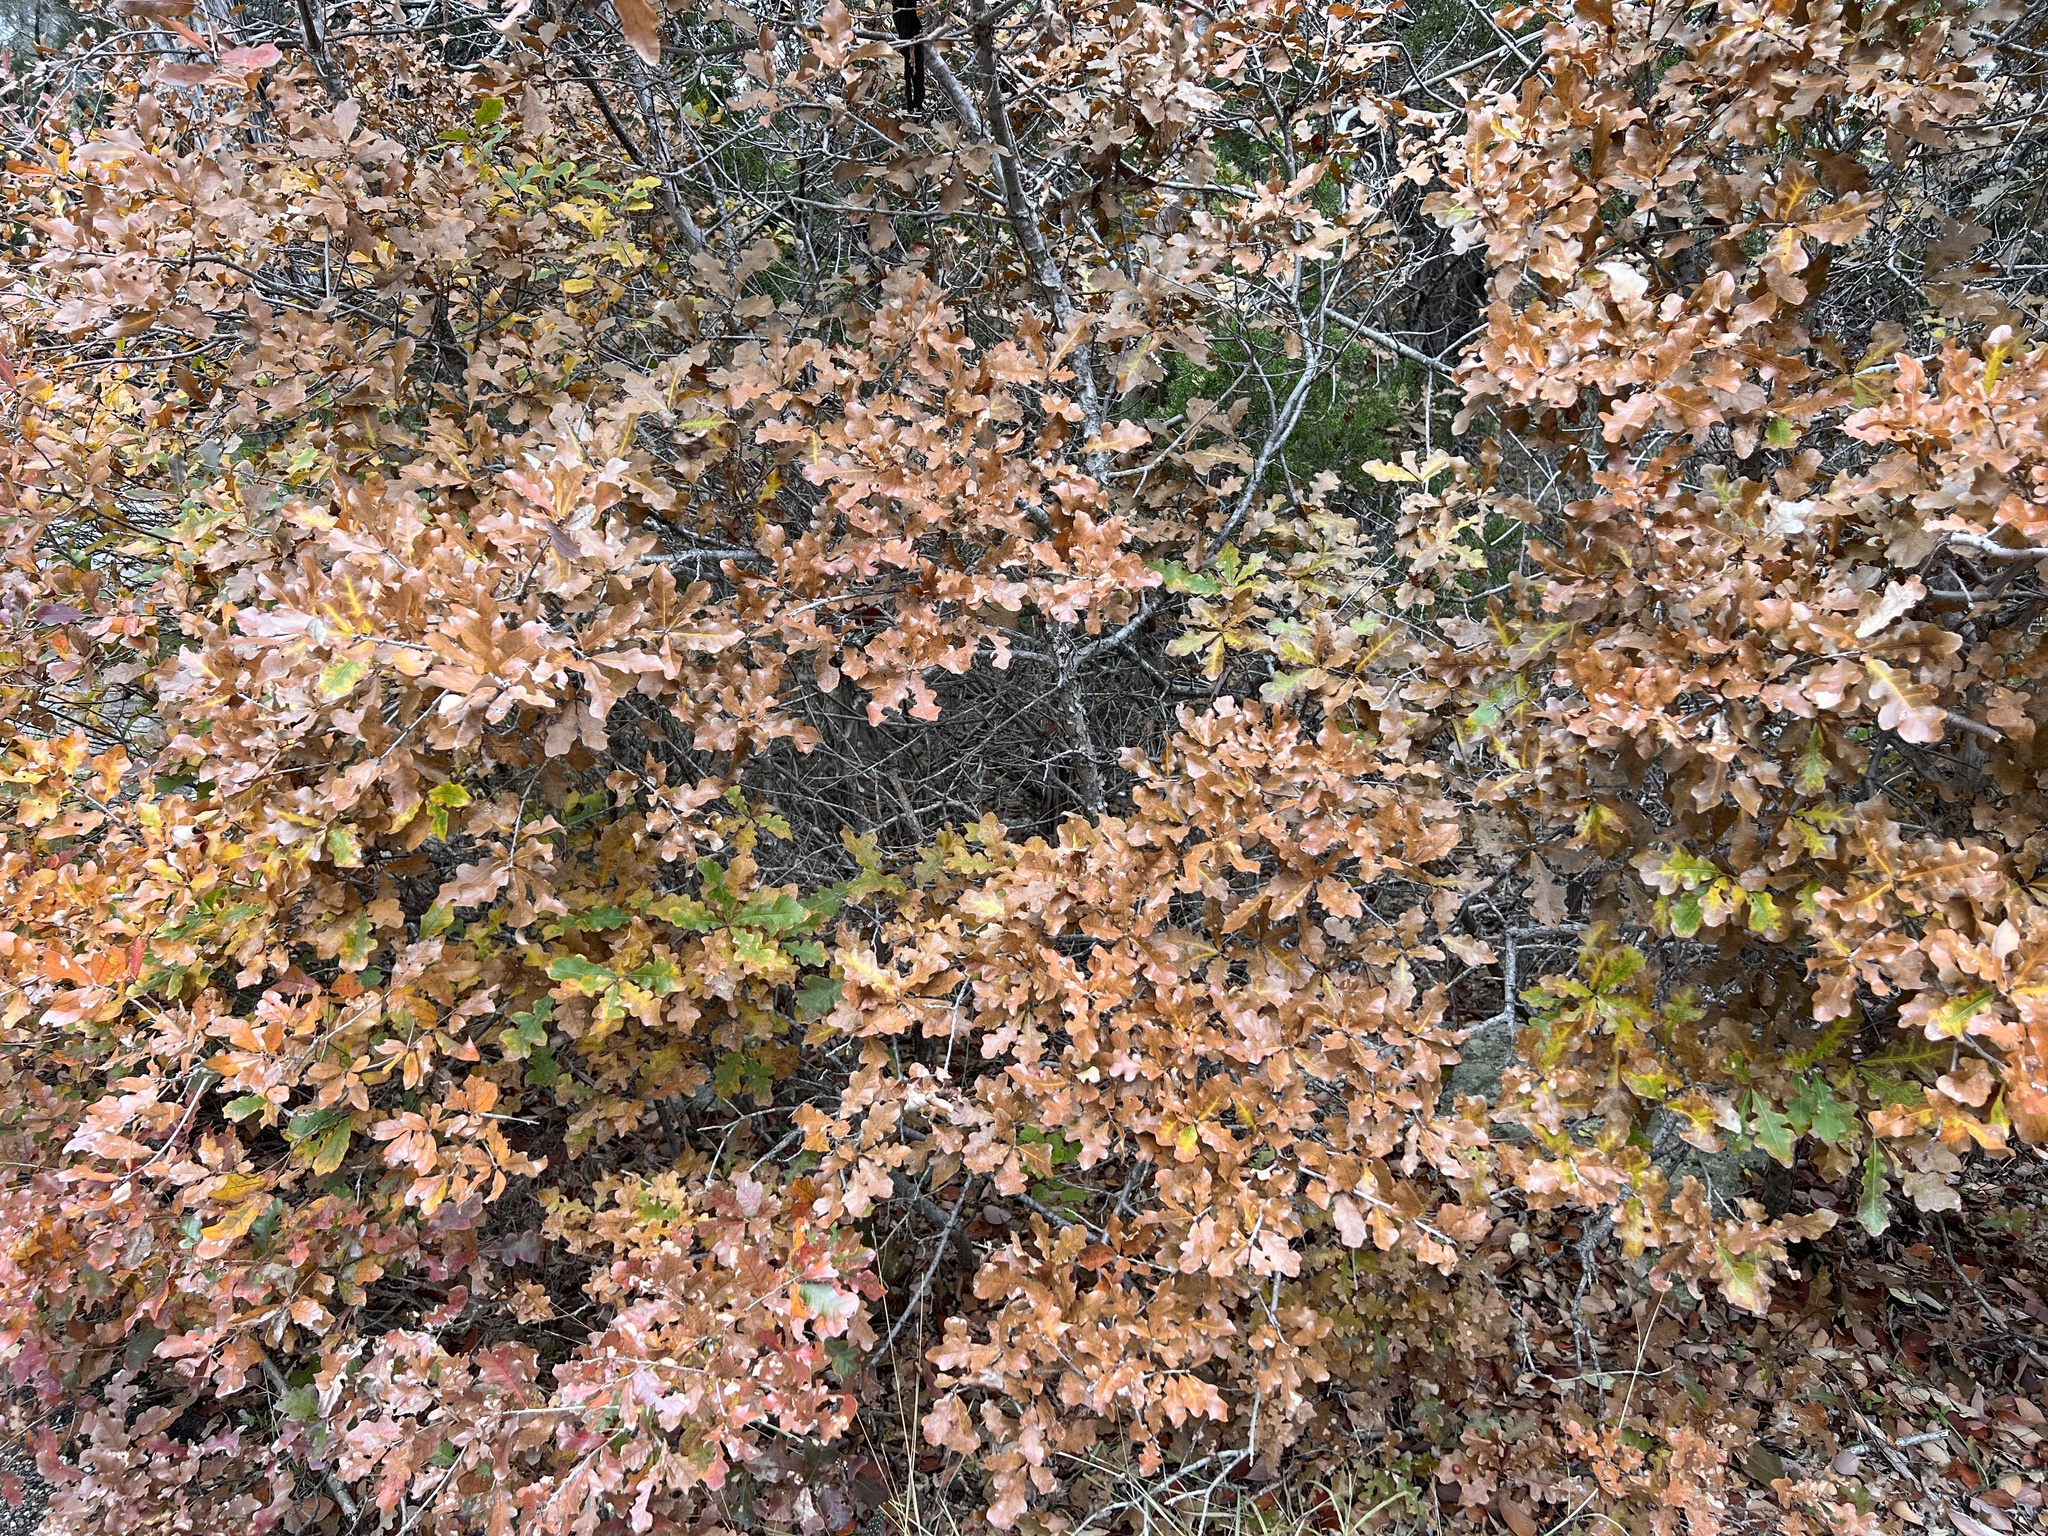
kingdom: Plantae
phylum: Tracheophyta
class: Magnoliopsida
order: Fagales
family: Fagaceae
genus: Quercus
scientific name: Quercus sinuata
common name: Durand oak
